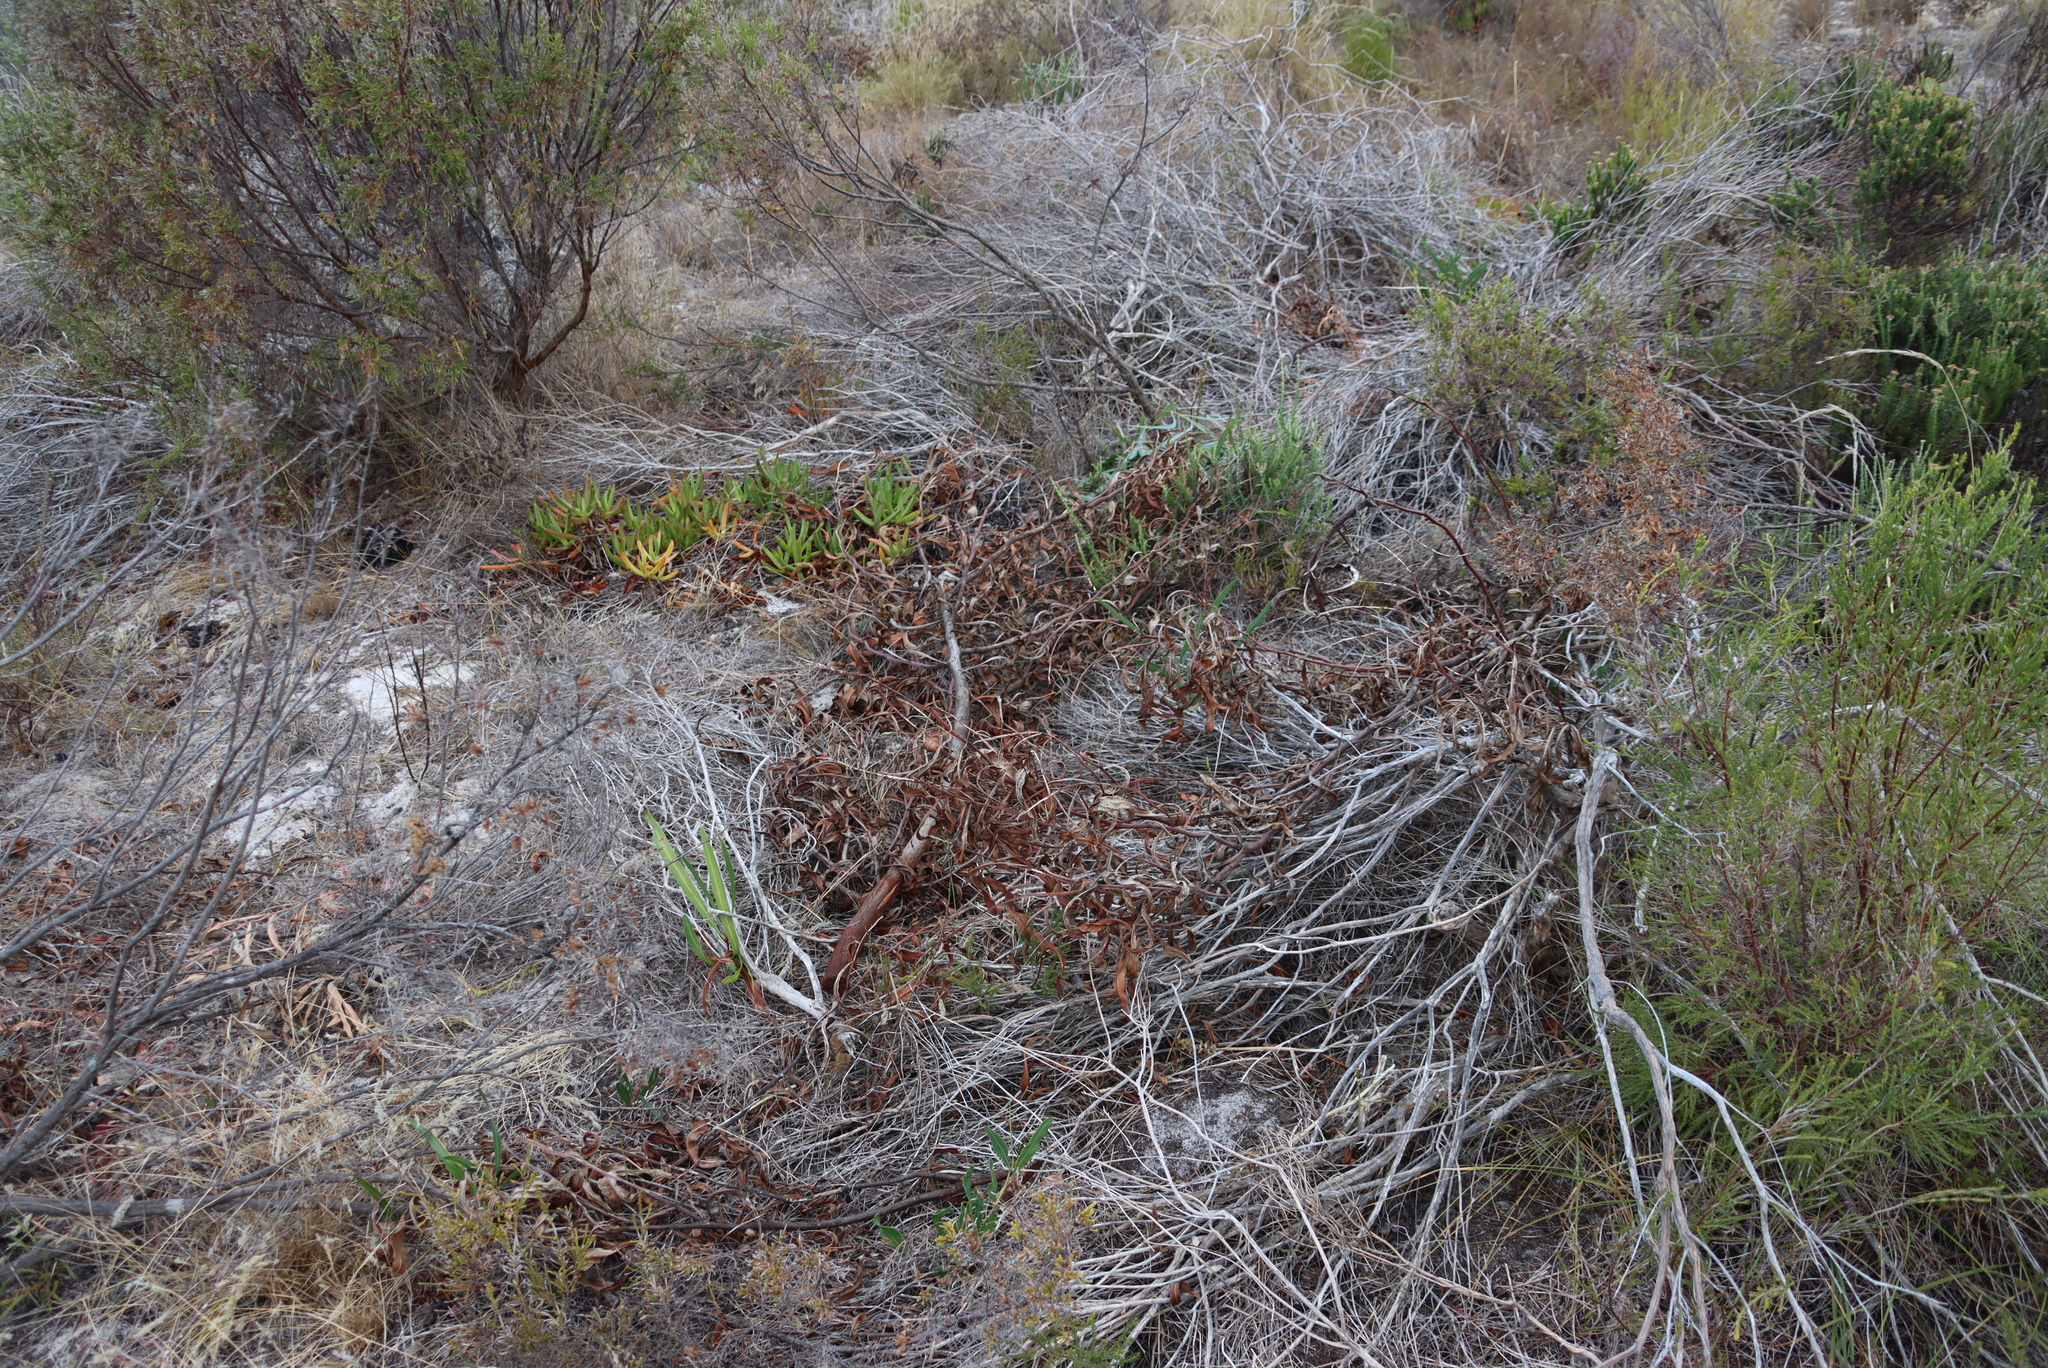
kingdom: Plantae
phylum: Tracheophyta
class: Magnoliopsida
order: Caryophyllales
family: Aizoaceae
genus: Carpobrotus
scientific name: Carpobrotus edulis
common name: Hottentot-fig
